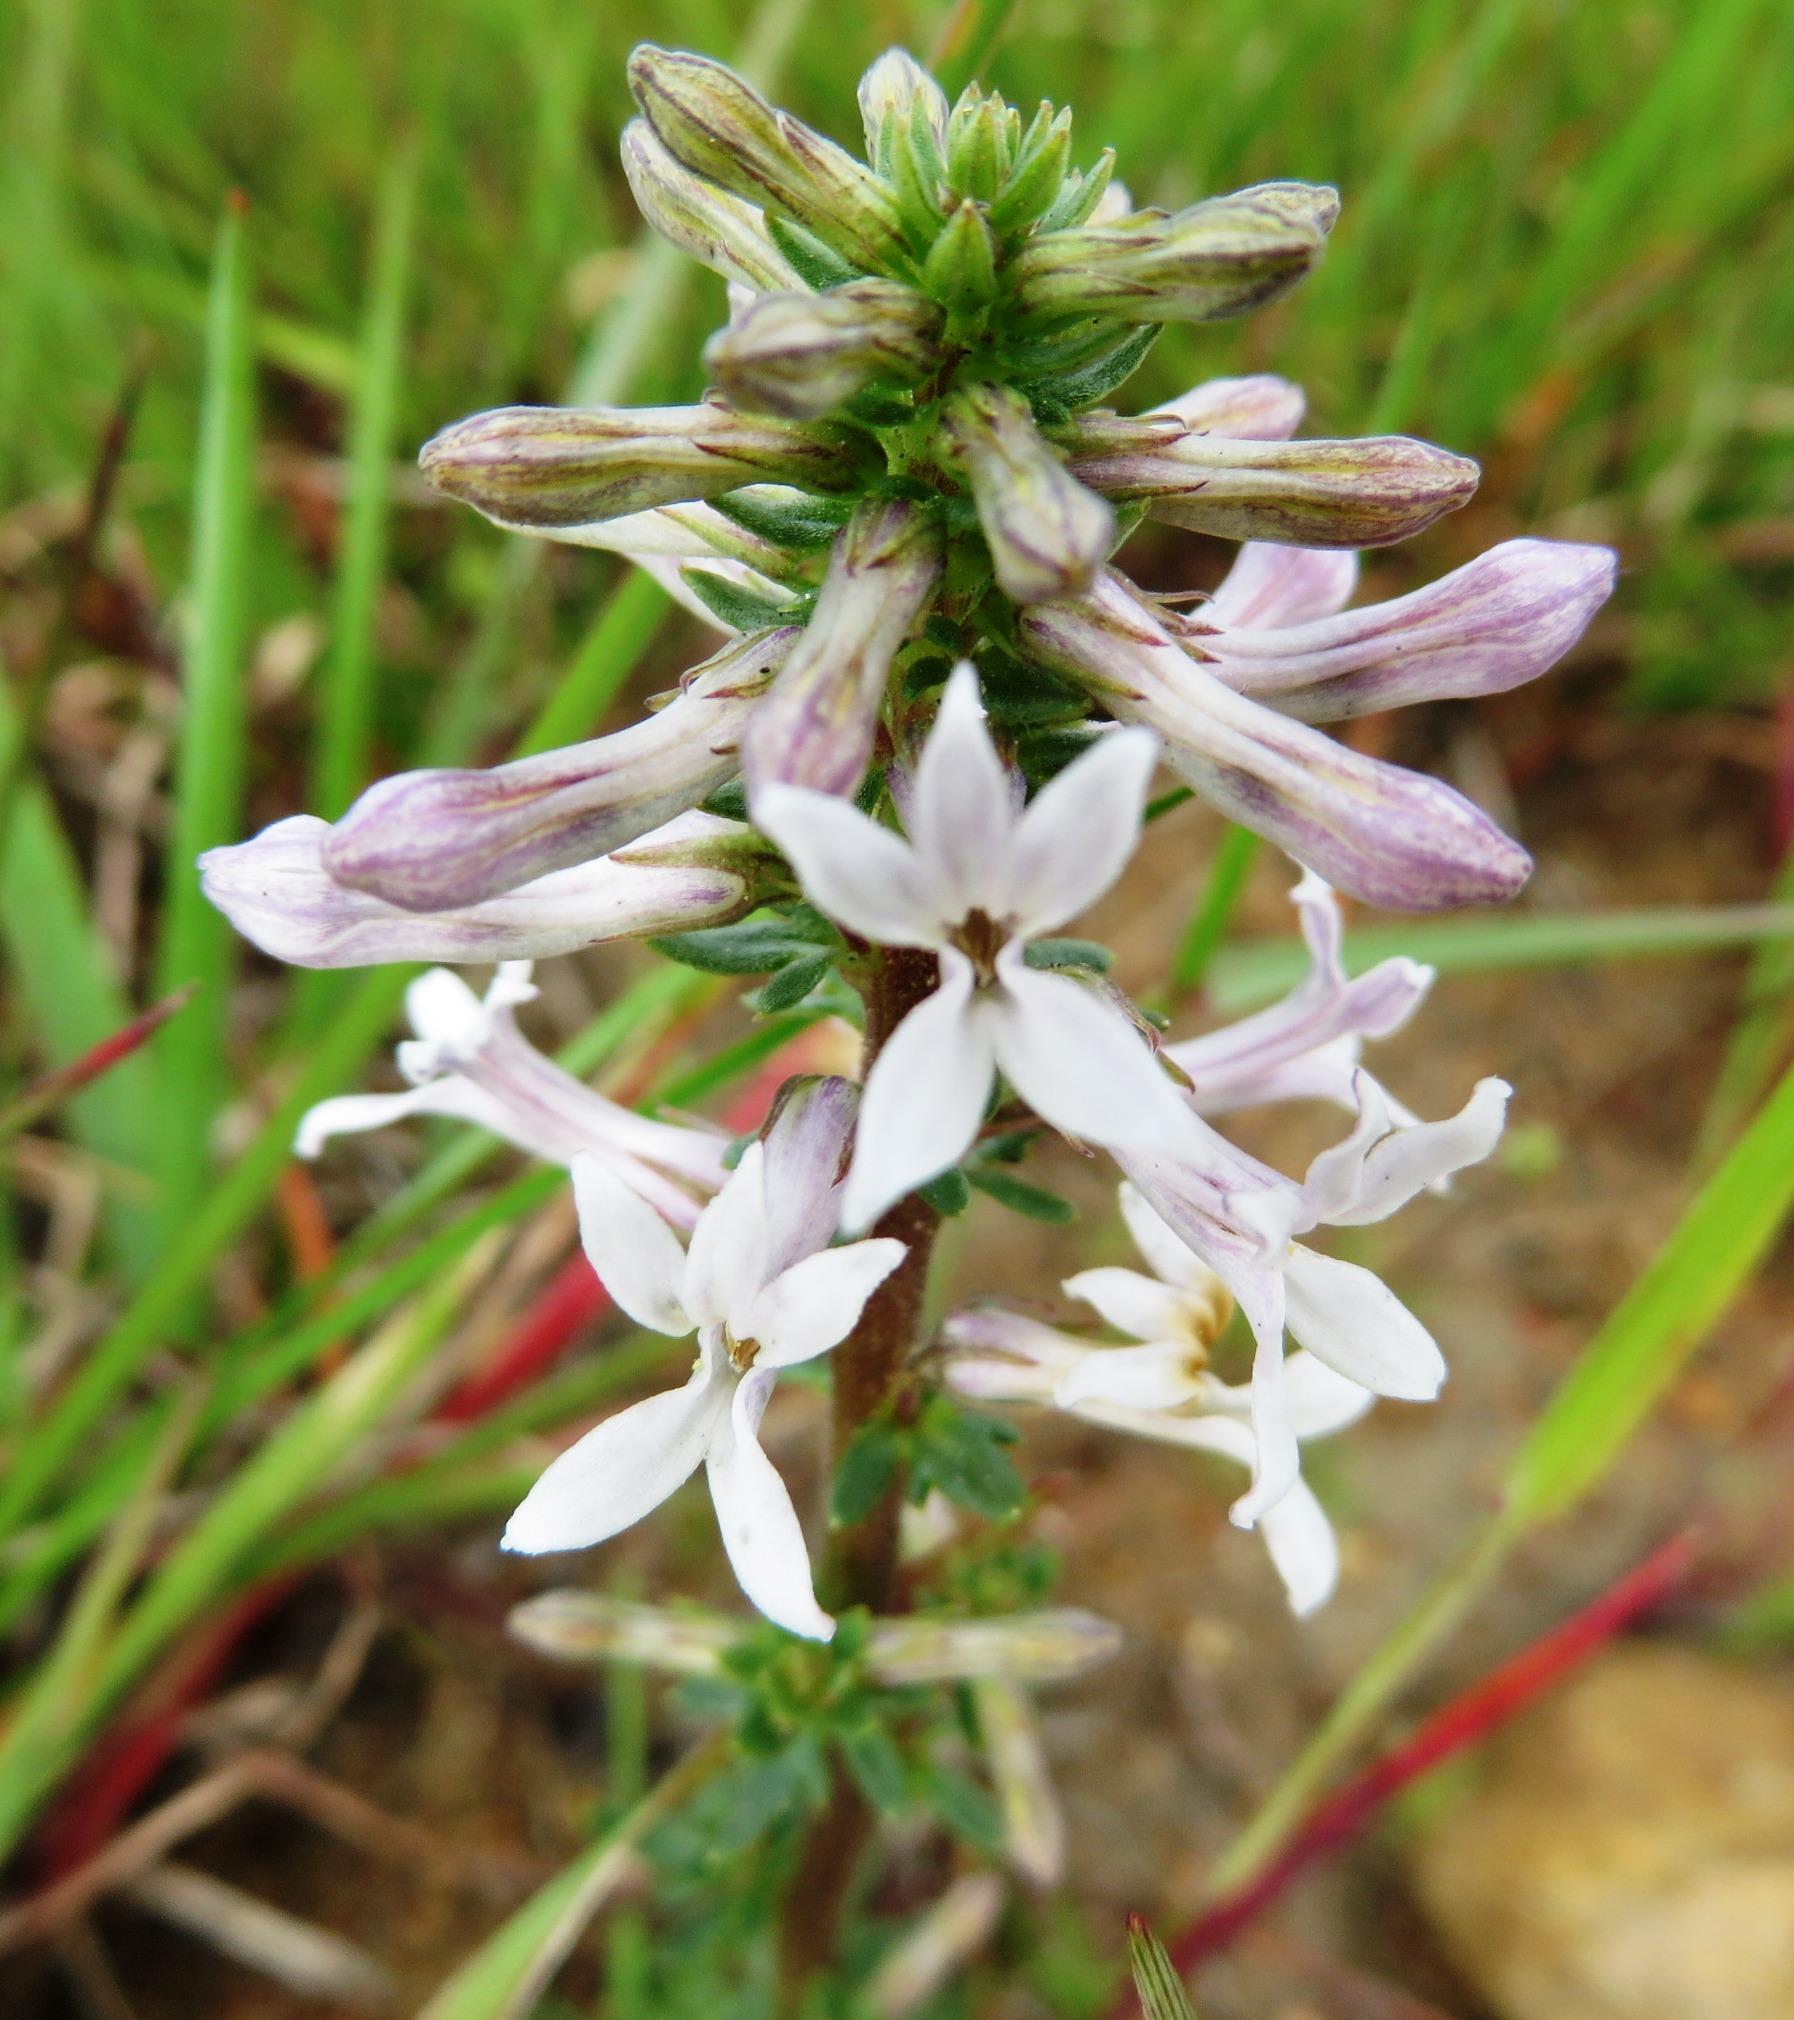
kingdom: Plantae
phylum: Tracheophyta
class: Magnoliopsida
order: Asterales
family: Campanulaceae
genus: Cyphia
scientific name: Cyphia bulbosa
